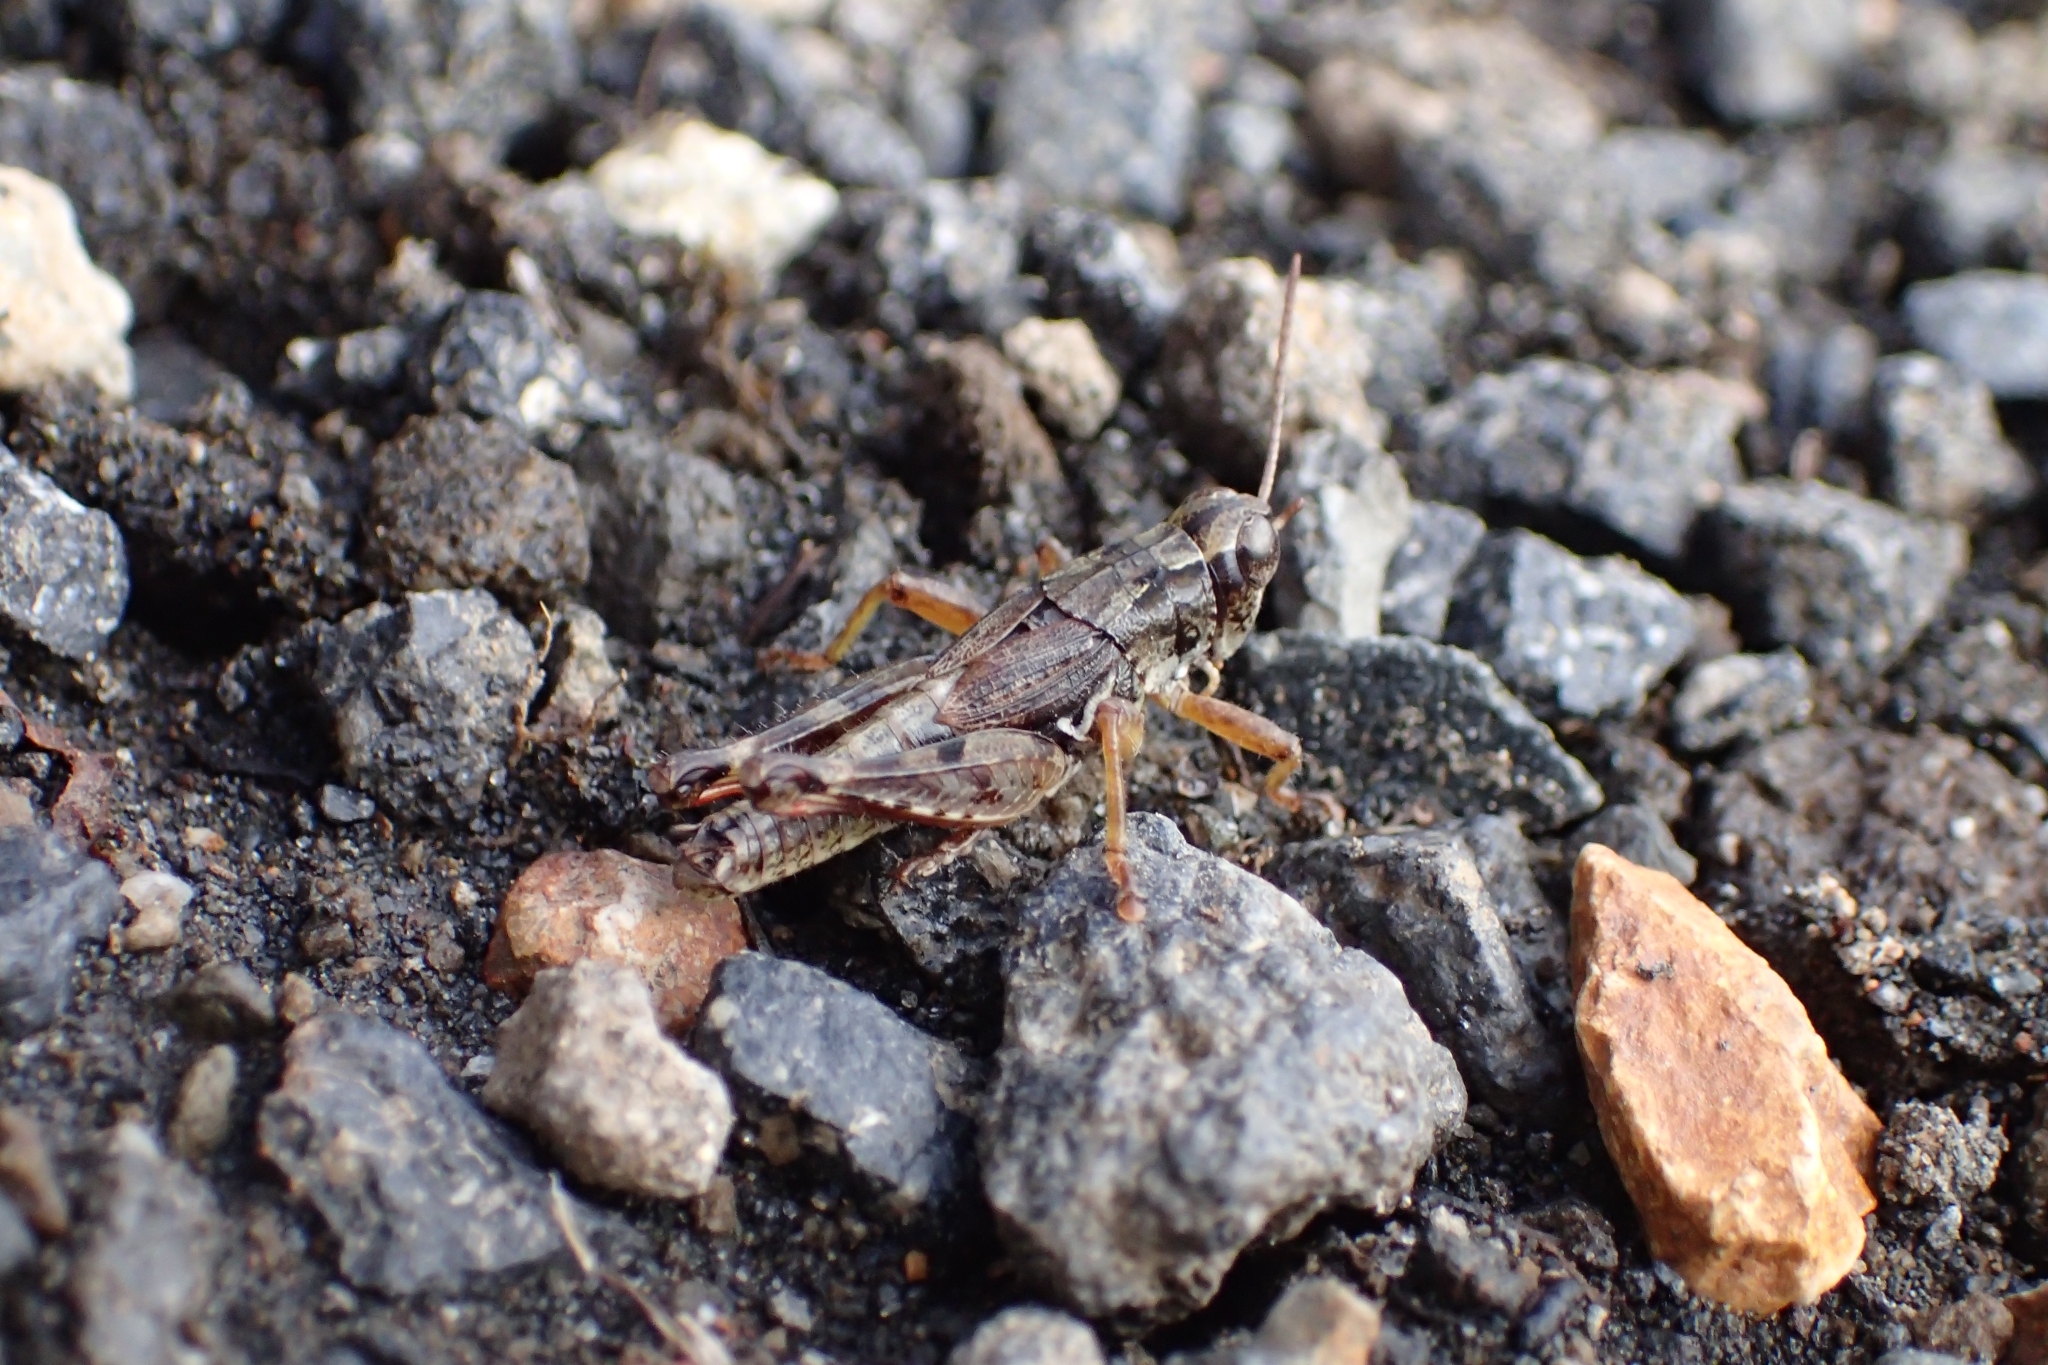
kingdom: Animalia
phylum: Arthropoda
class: Insecta
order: Orthoptera
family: Acrididae
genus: Phaulacridium
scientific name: Phaulacridium marginale
